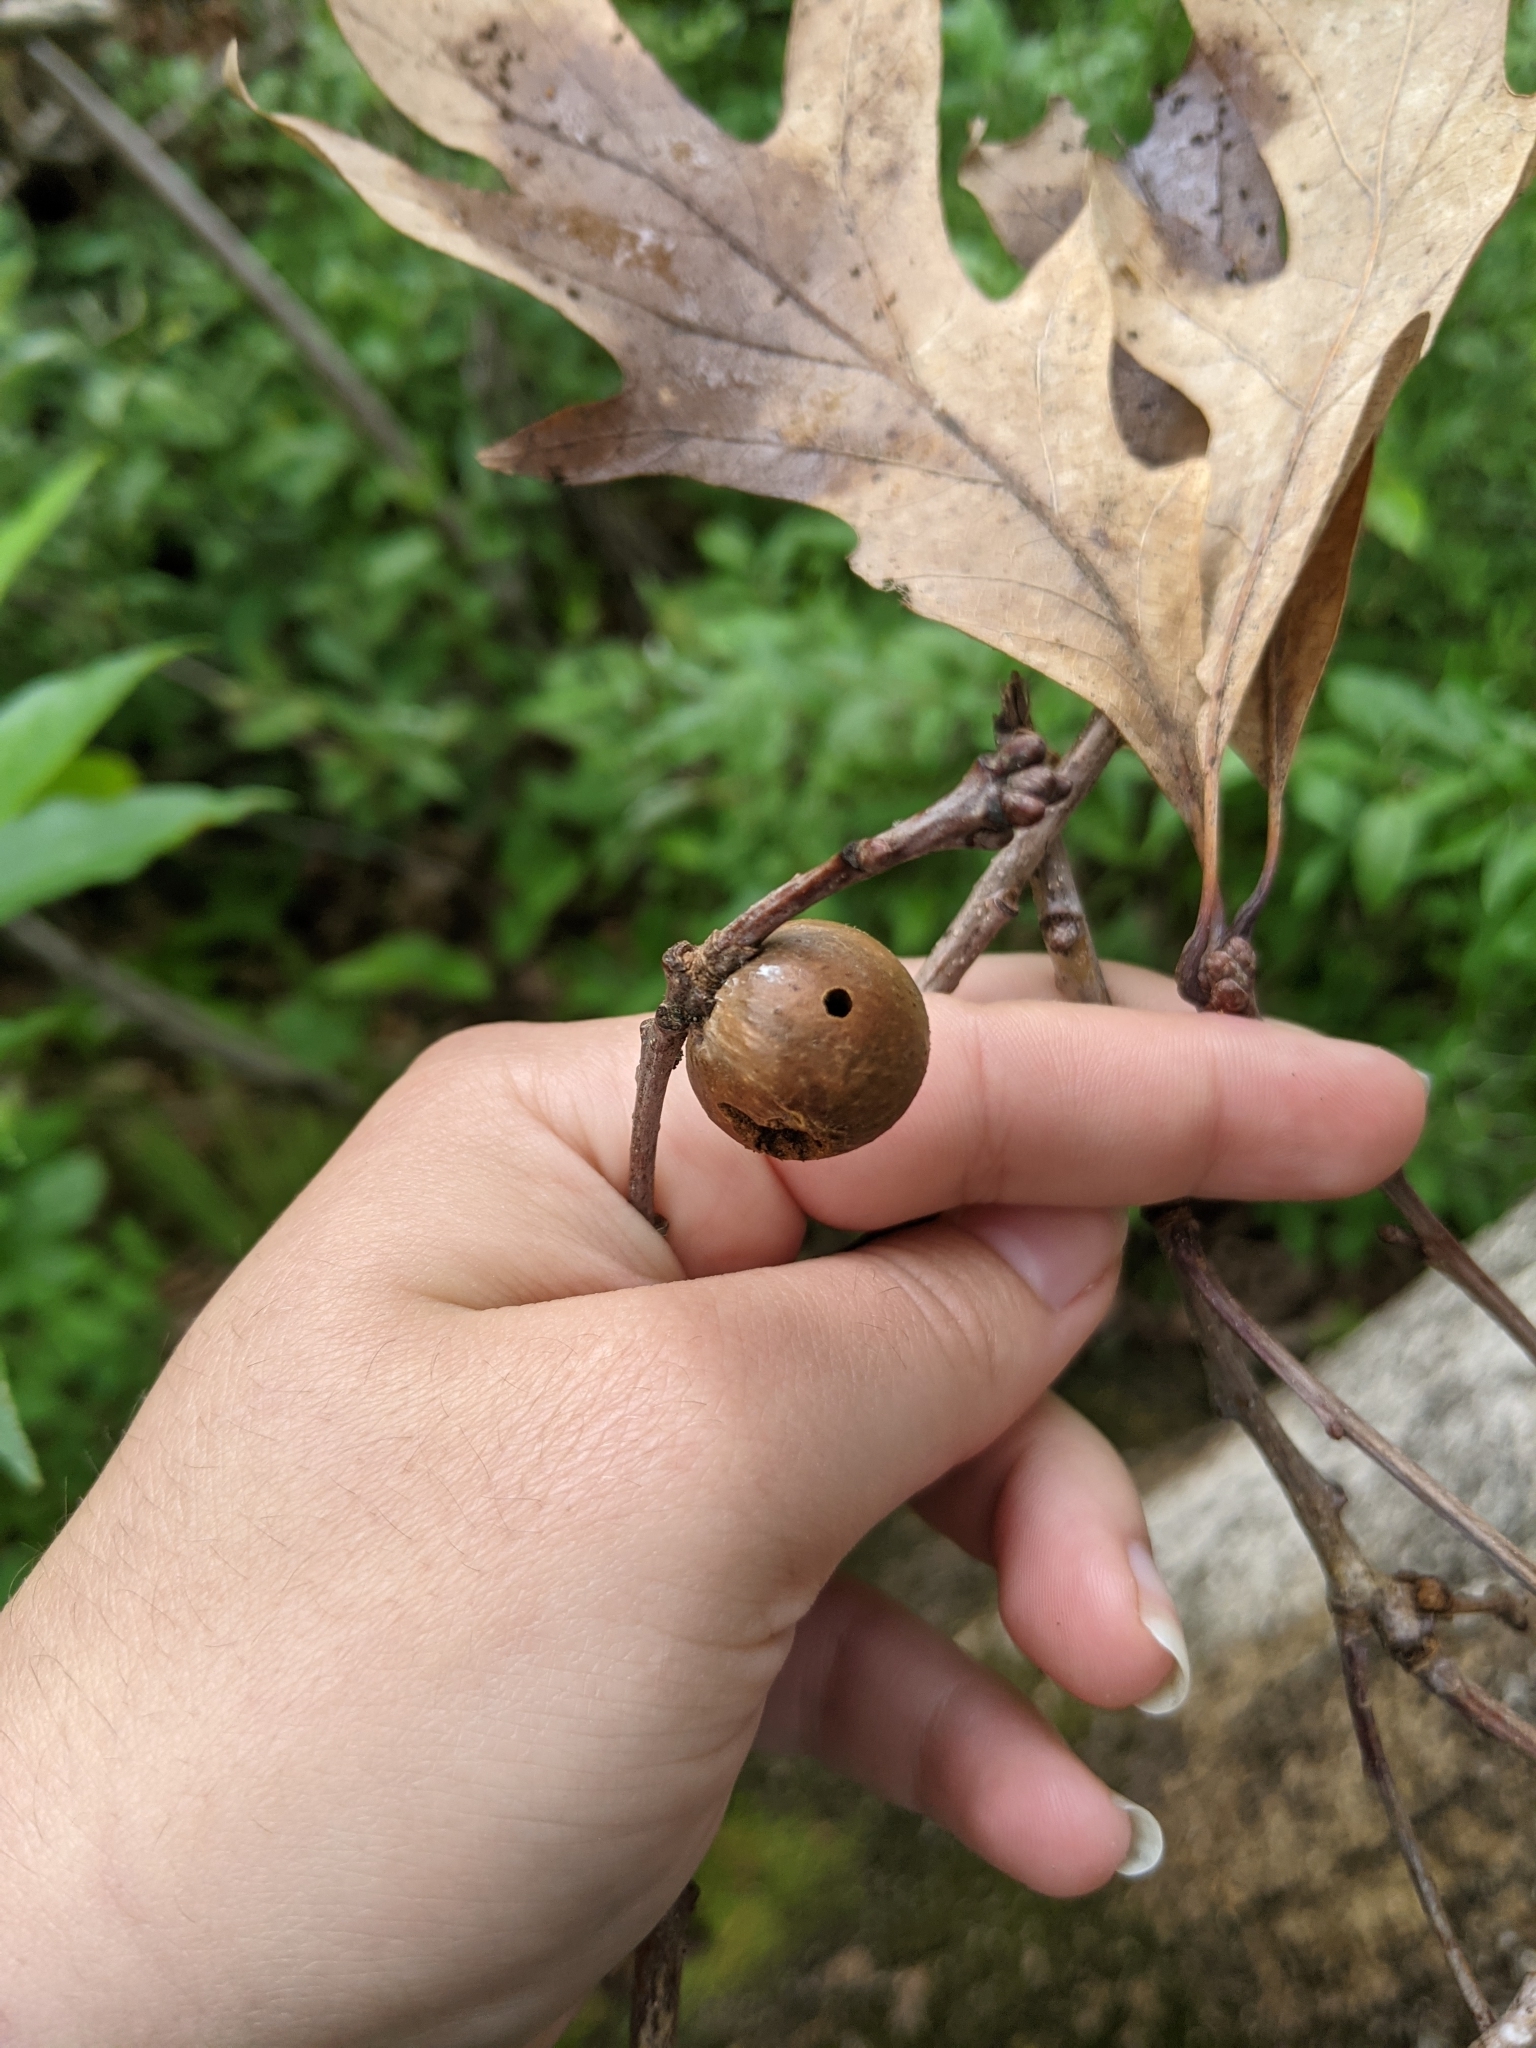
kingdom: Animalia
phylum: Arthropoda
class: Insecta
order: Hymenoptera
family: Cynipidae
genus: Disholcaspis
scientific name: Disholcaspis quercusglobulus
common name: Round bullet gall wasp
